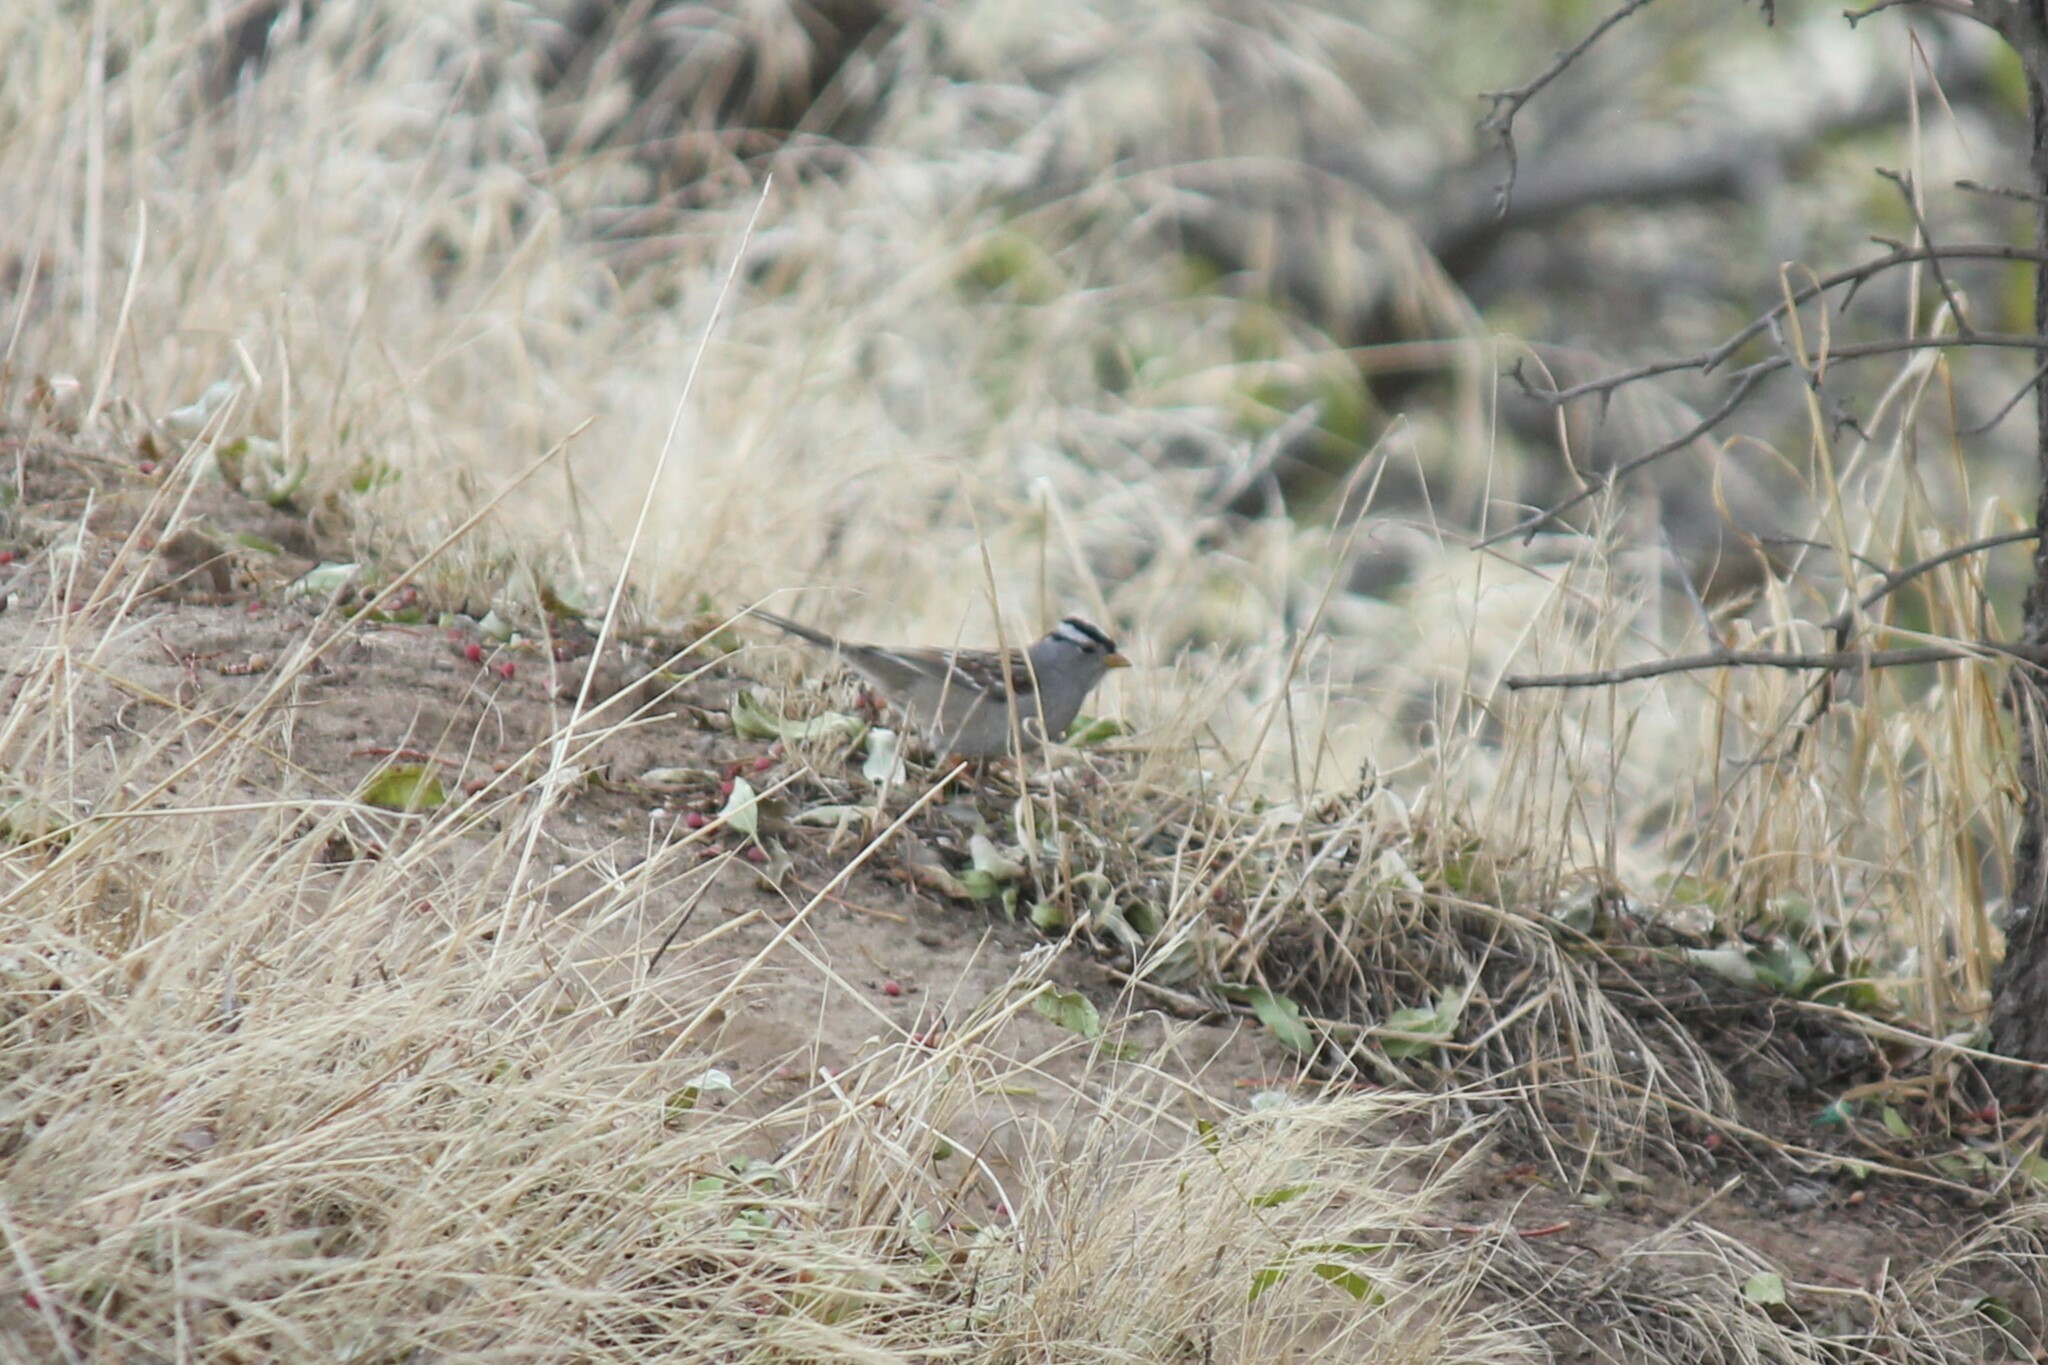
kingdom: Animalia
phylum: Chordata
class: Aves
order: Passeriformes
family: Passerellidae
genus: Zonotrichia
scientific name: Zonotrichia leucophrys
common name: White-crowned sparrow
